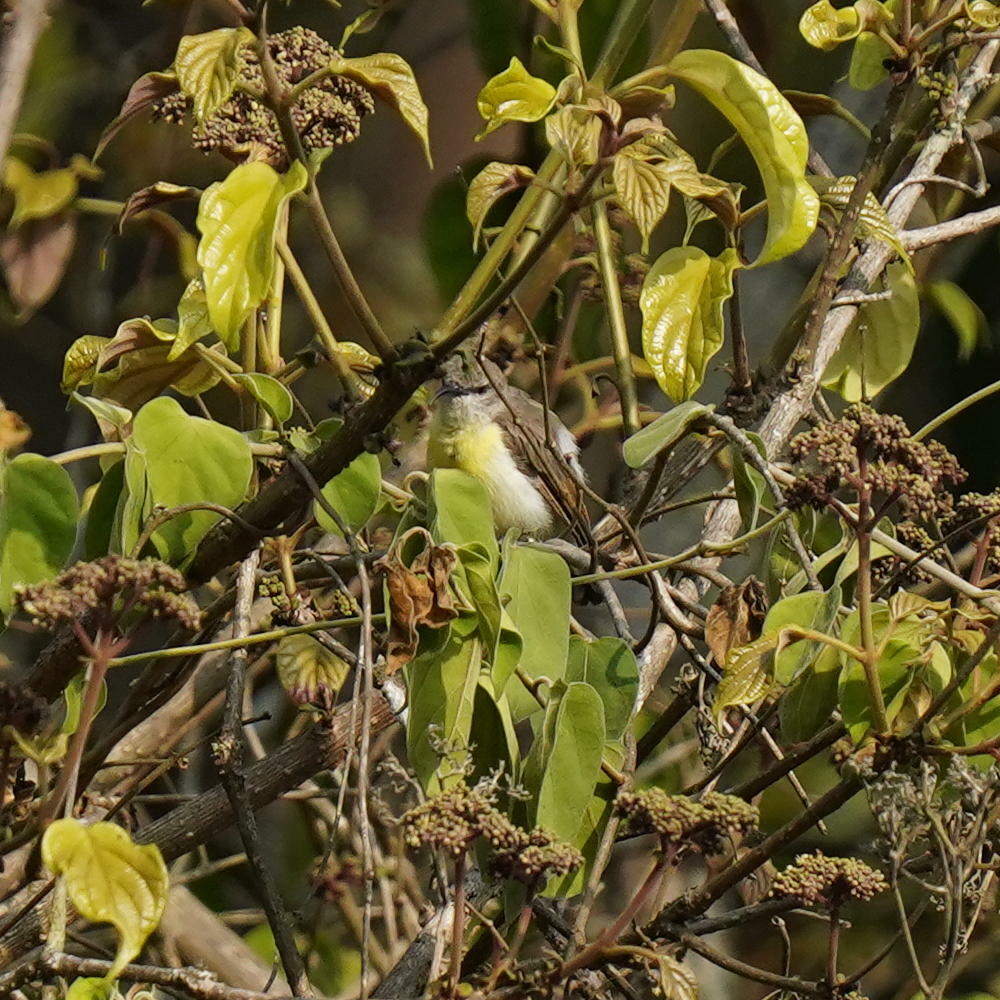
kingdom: Animalia
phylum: Chordata
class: Aves
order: Passeriformes
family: Nectariniidae
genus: Leptocoma
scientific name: Leptocoma zeylonica
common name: Purple-rumped sunbird
